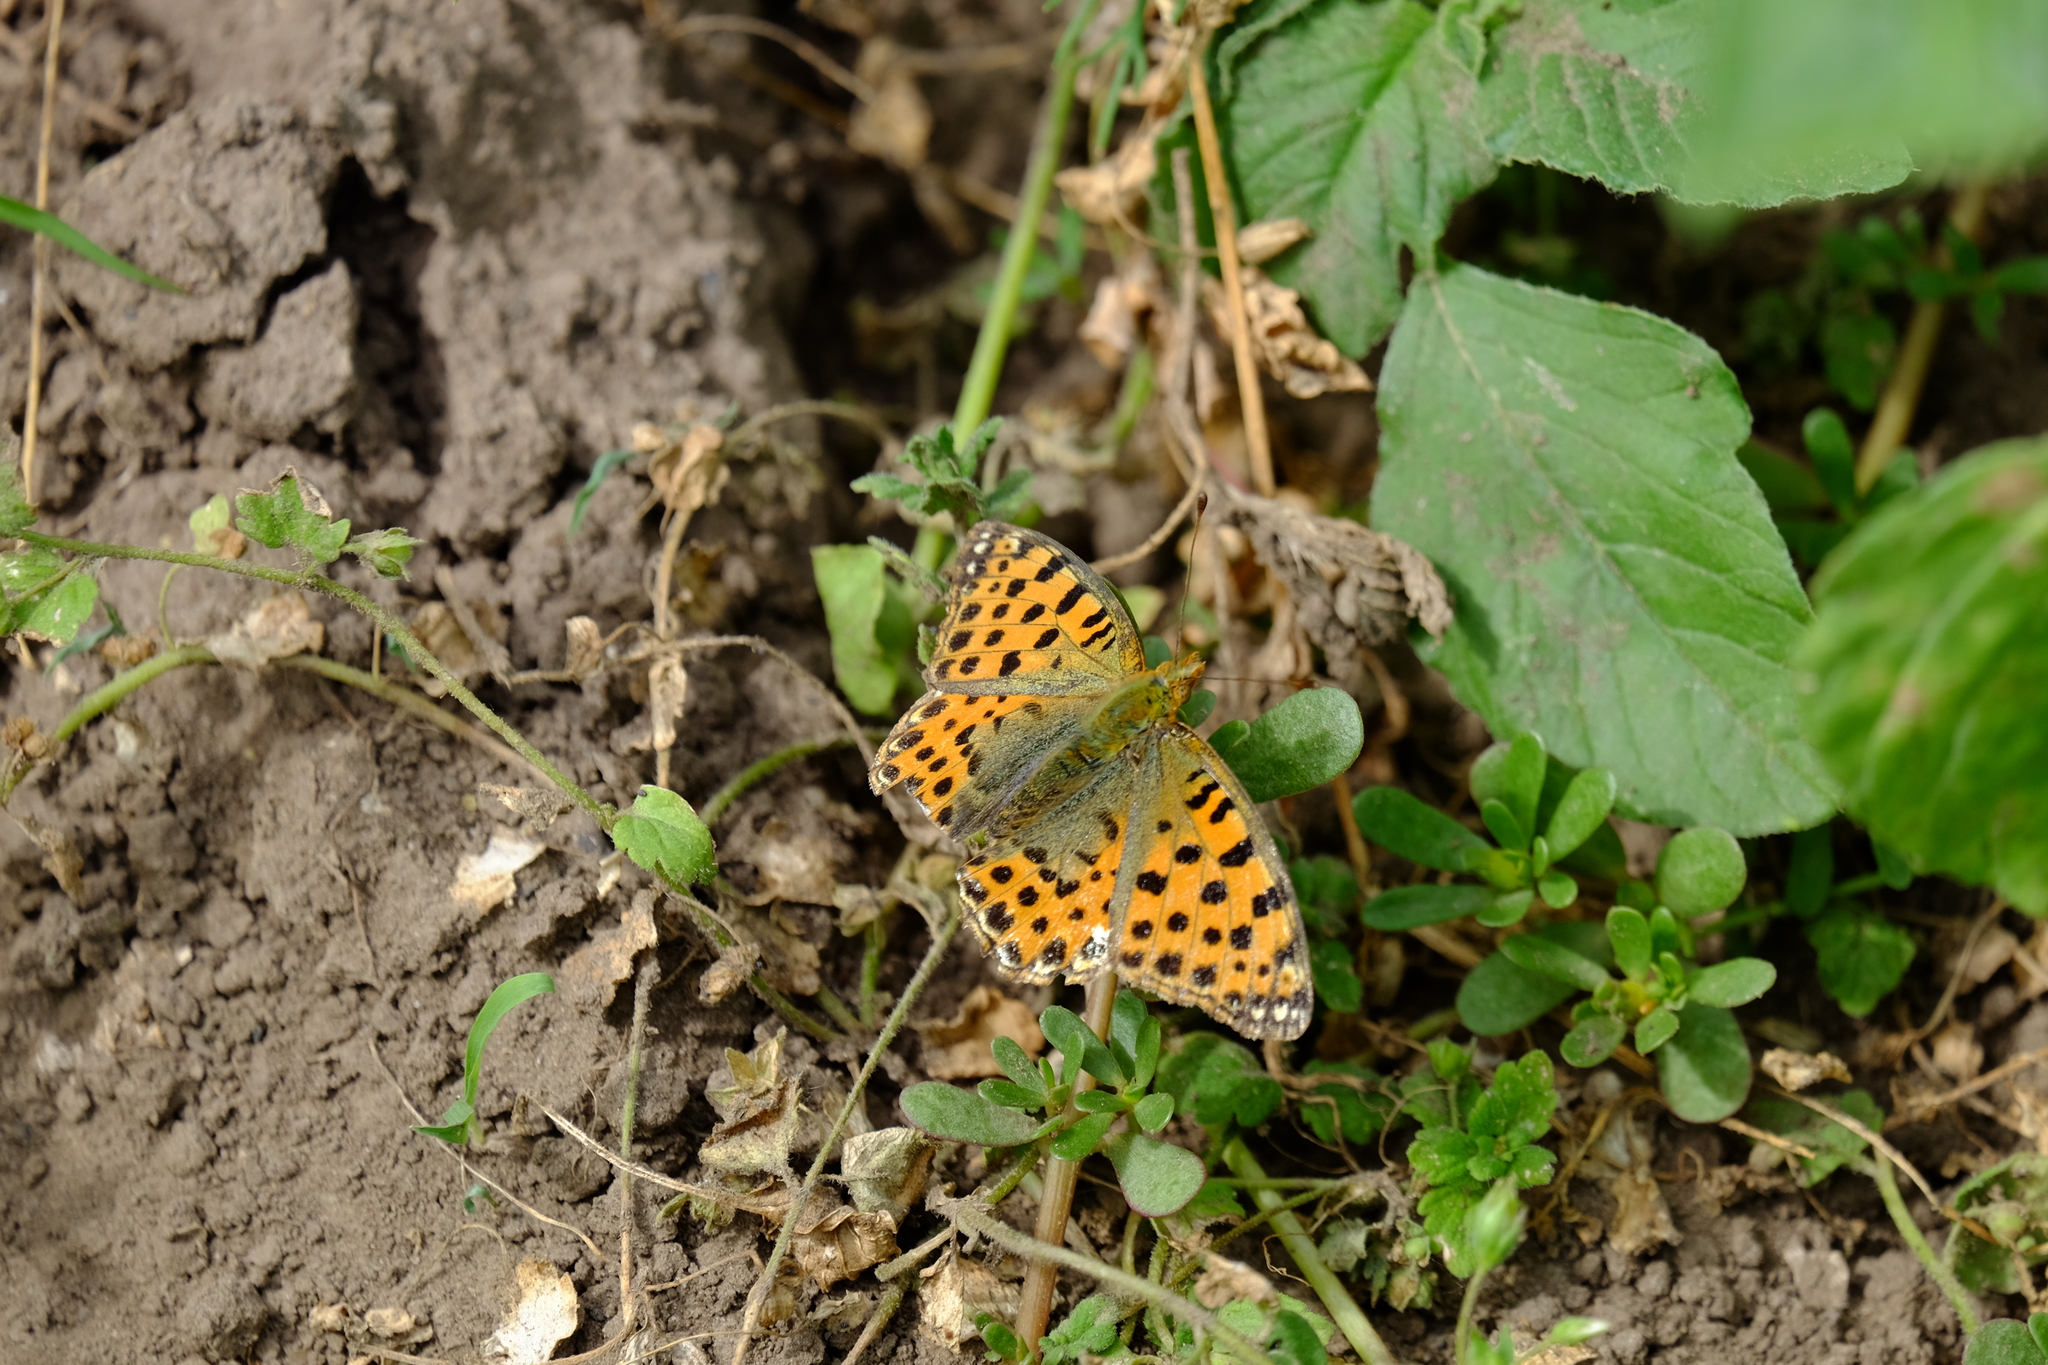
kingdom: Animalia
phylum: Arthropoda
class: Insecta
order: Lepidoptera
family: Nymphalidae
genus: Issoria
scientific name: Issoria lathonia
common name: Queen of spain fritillary
